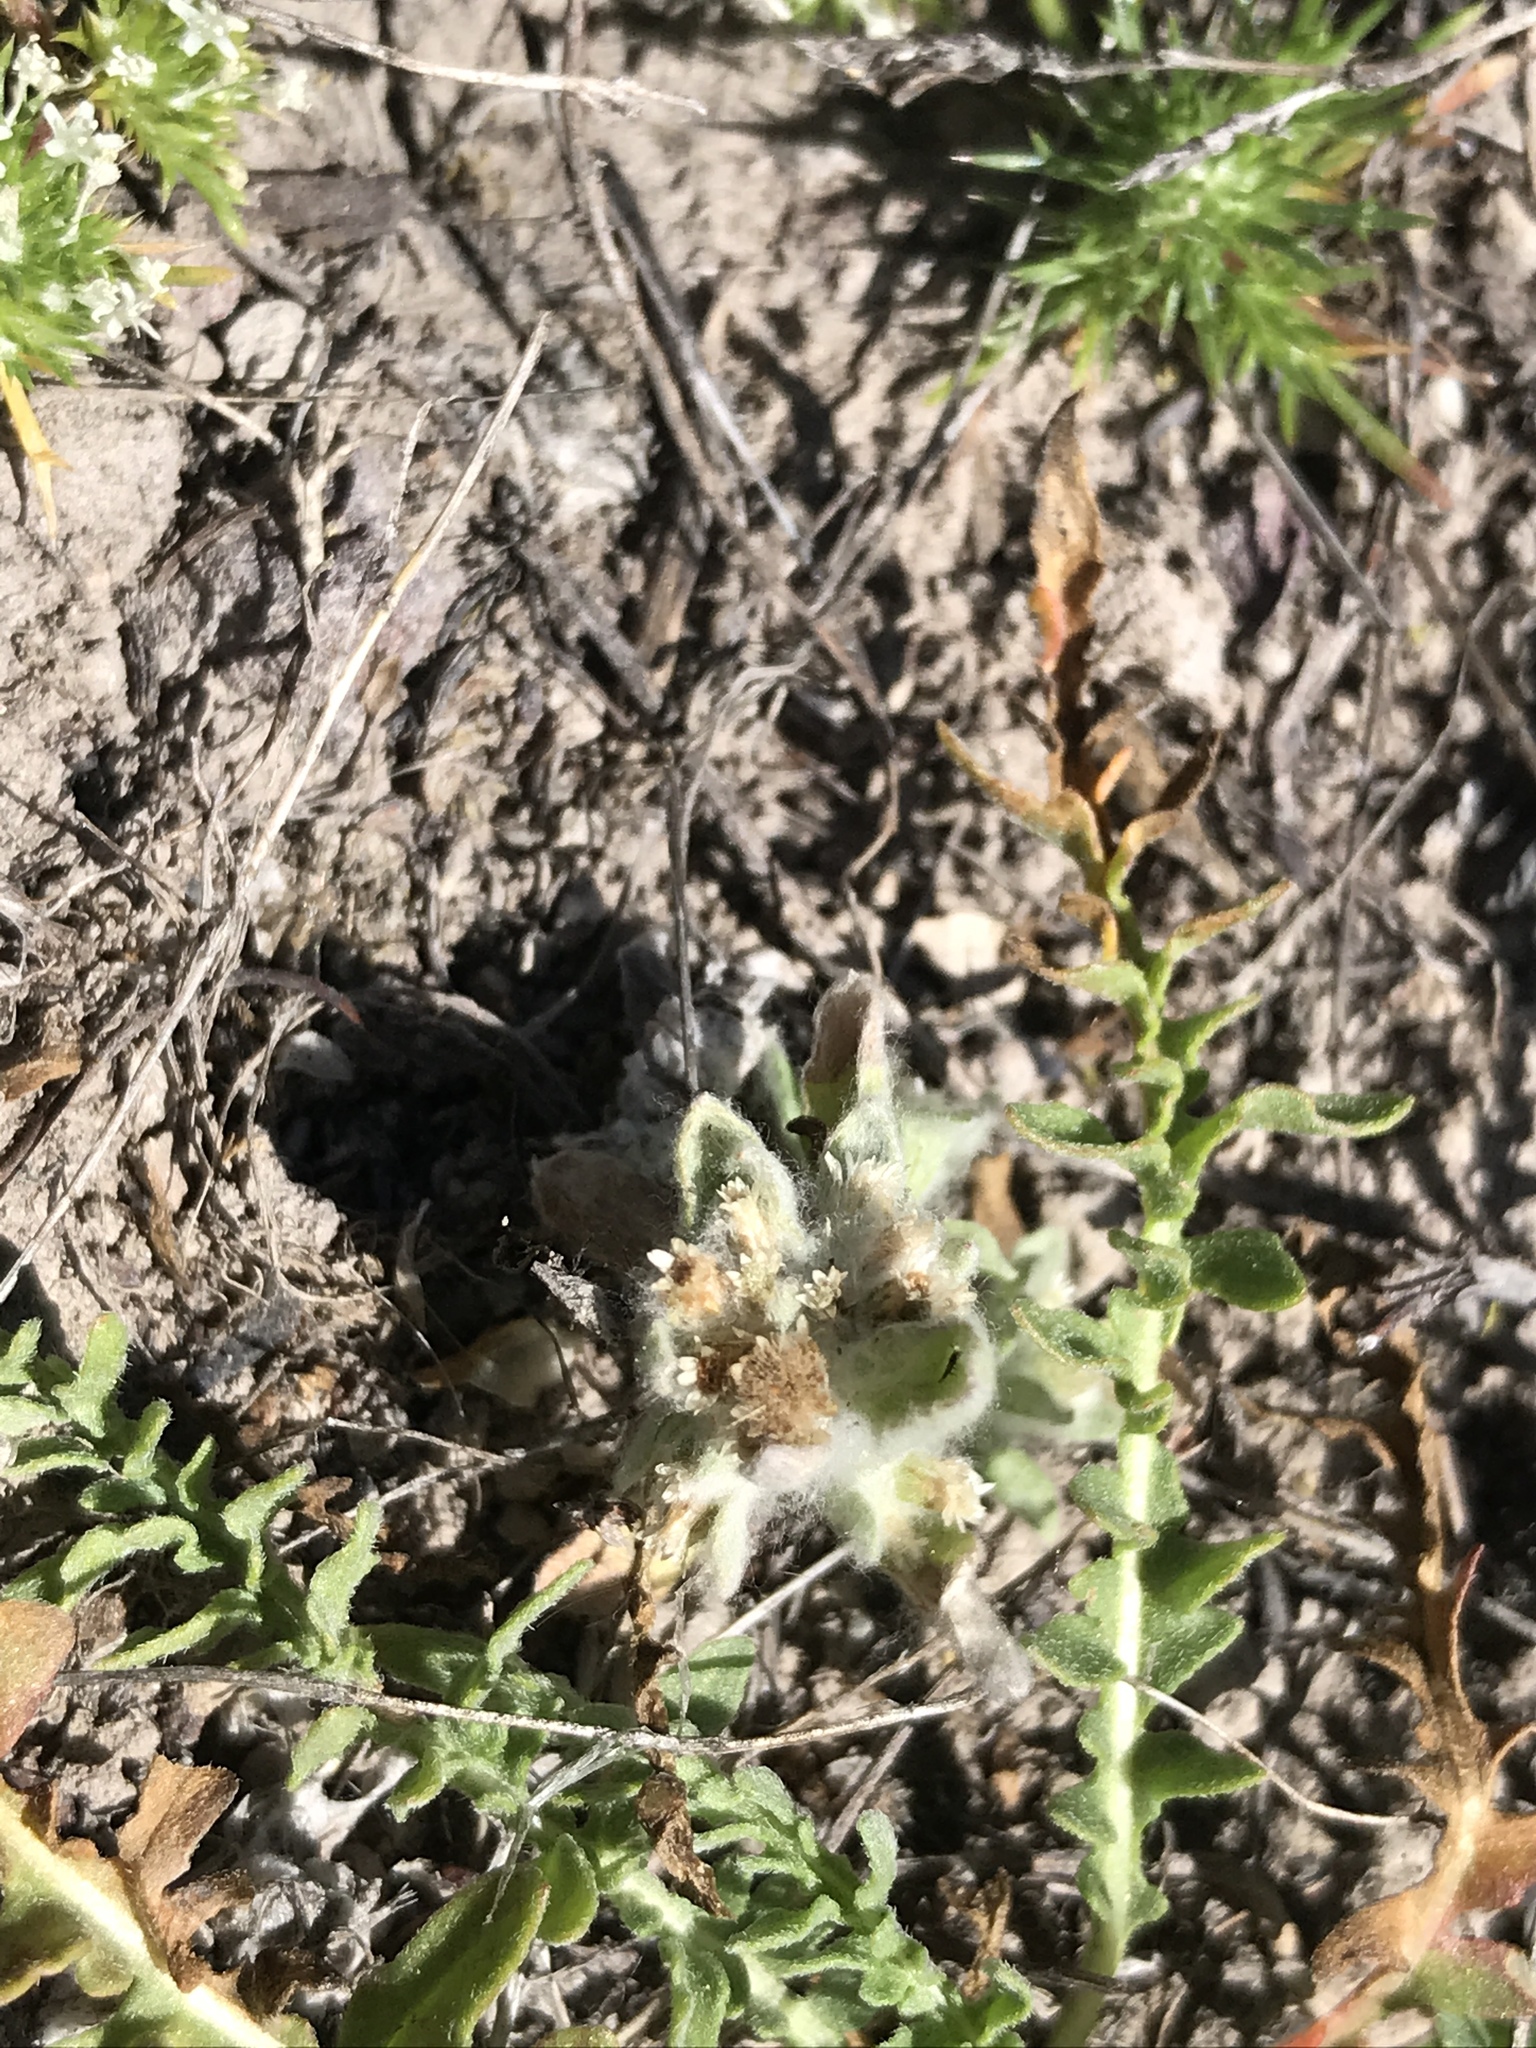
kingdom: Plantae
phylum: Tracheophyta
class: Magnoliopsida
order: Asterales
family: Asteraceae
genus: Gnaphalium
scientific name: Gnaphalium palustre
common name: Western marsh cudweed
